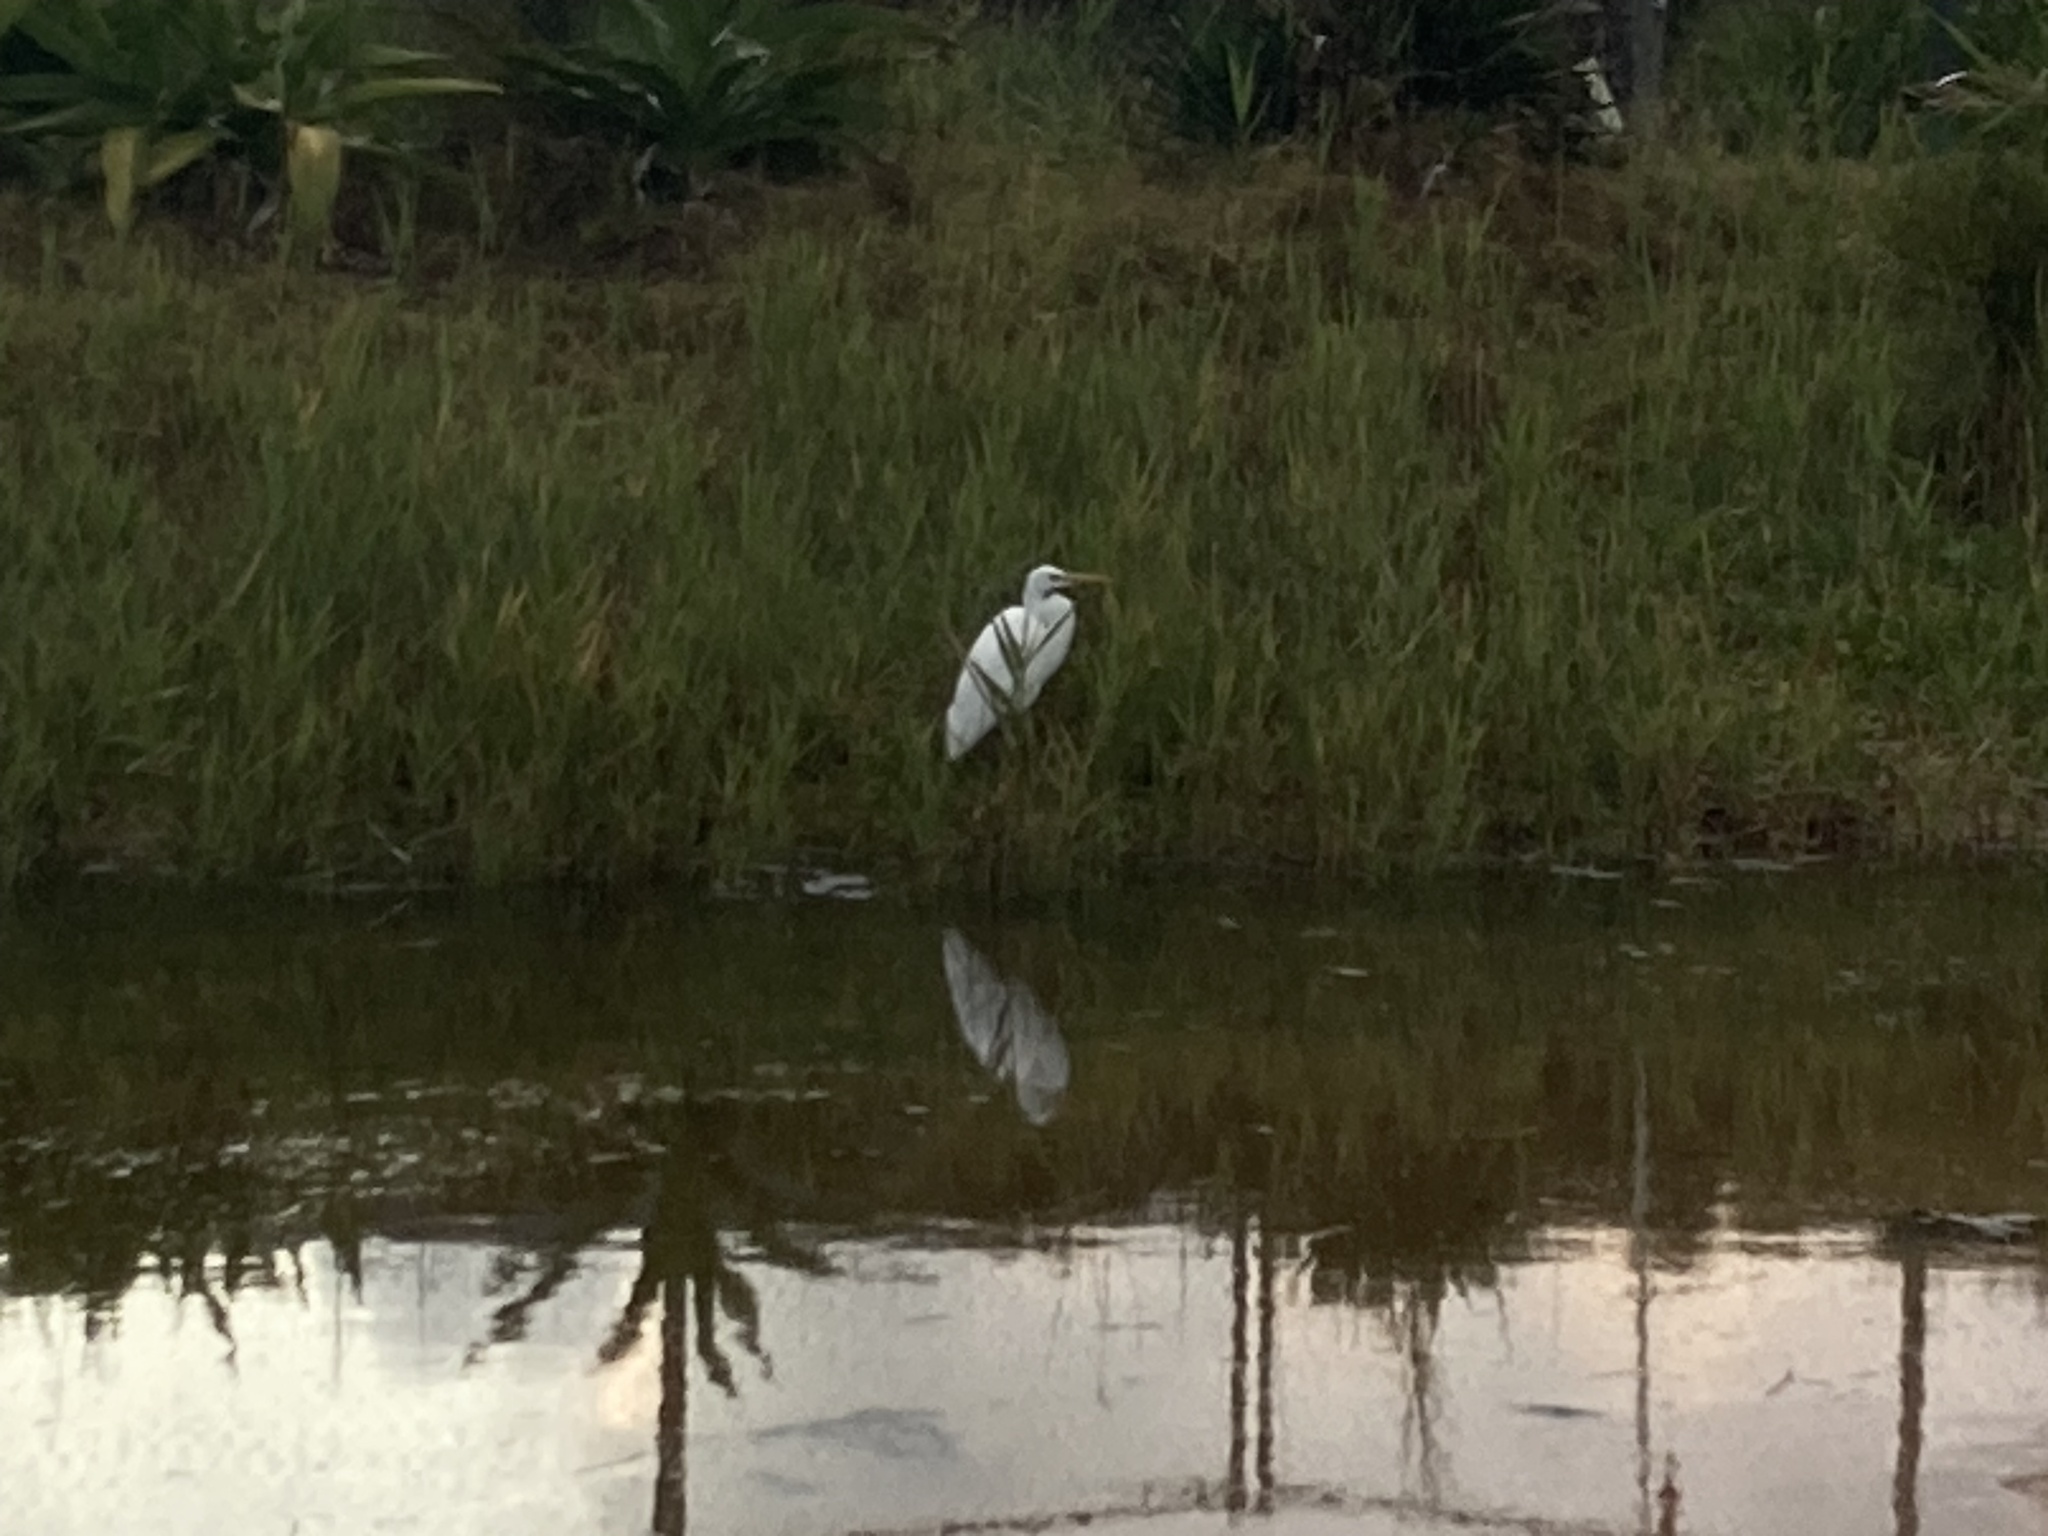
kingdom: Animalia
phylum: Chordata
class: Aves
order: Pelecaniformes
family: Ardeidae
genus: Ardea
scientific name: Ardea modesta
